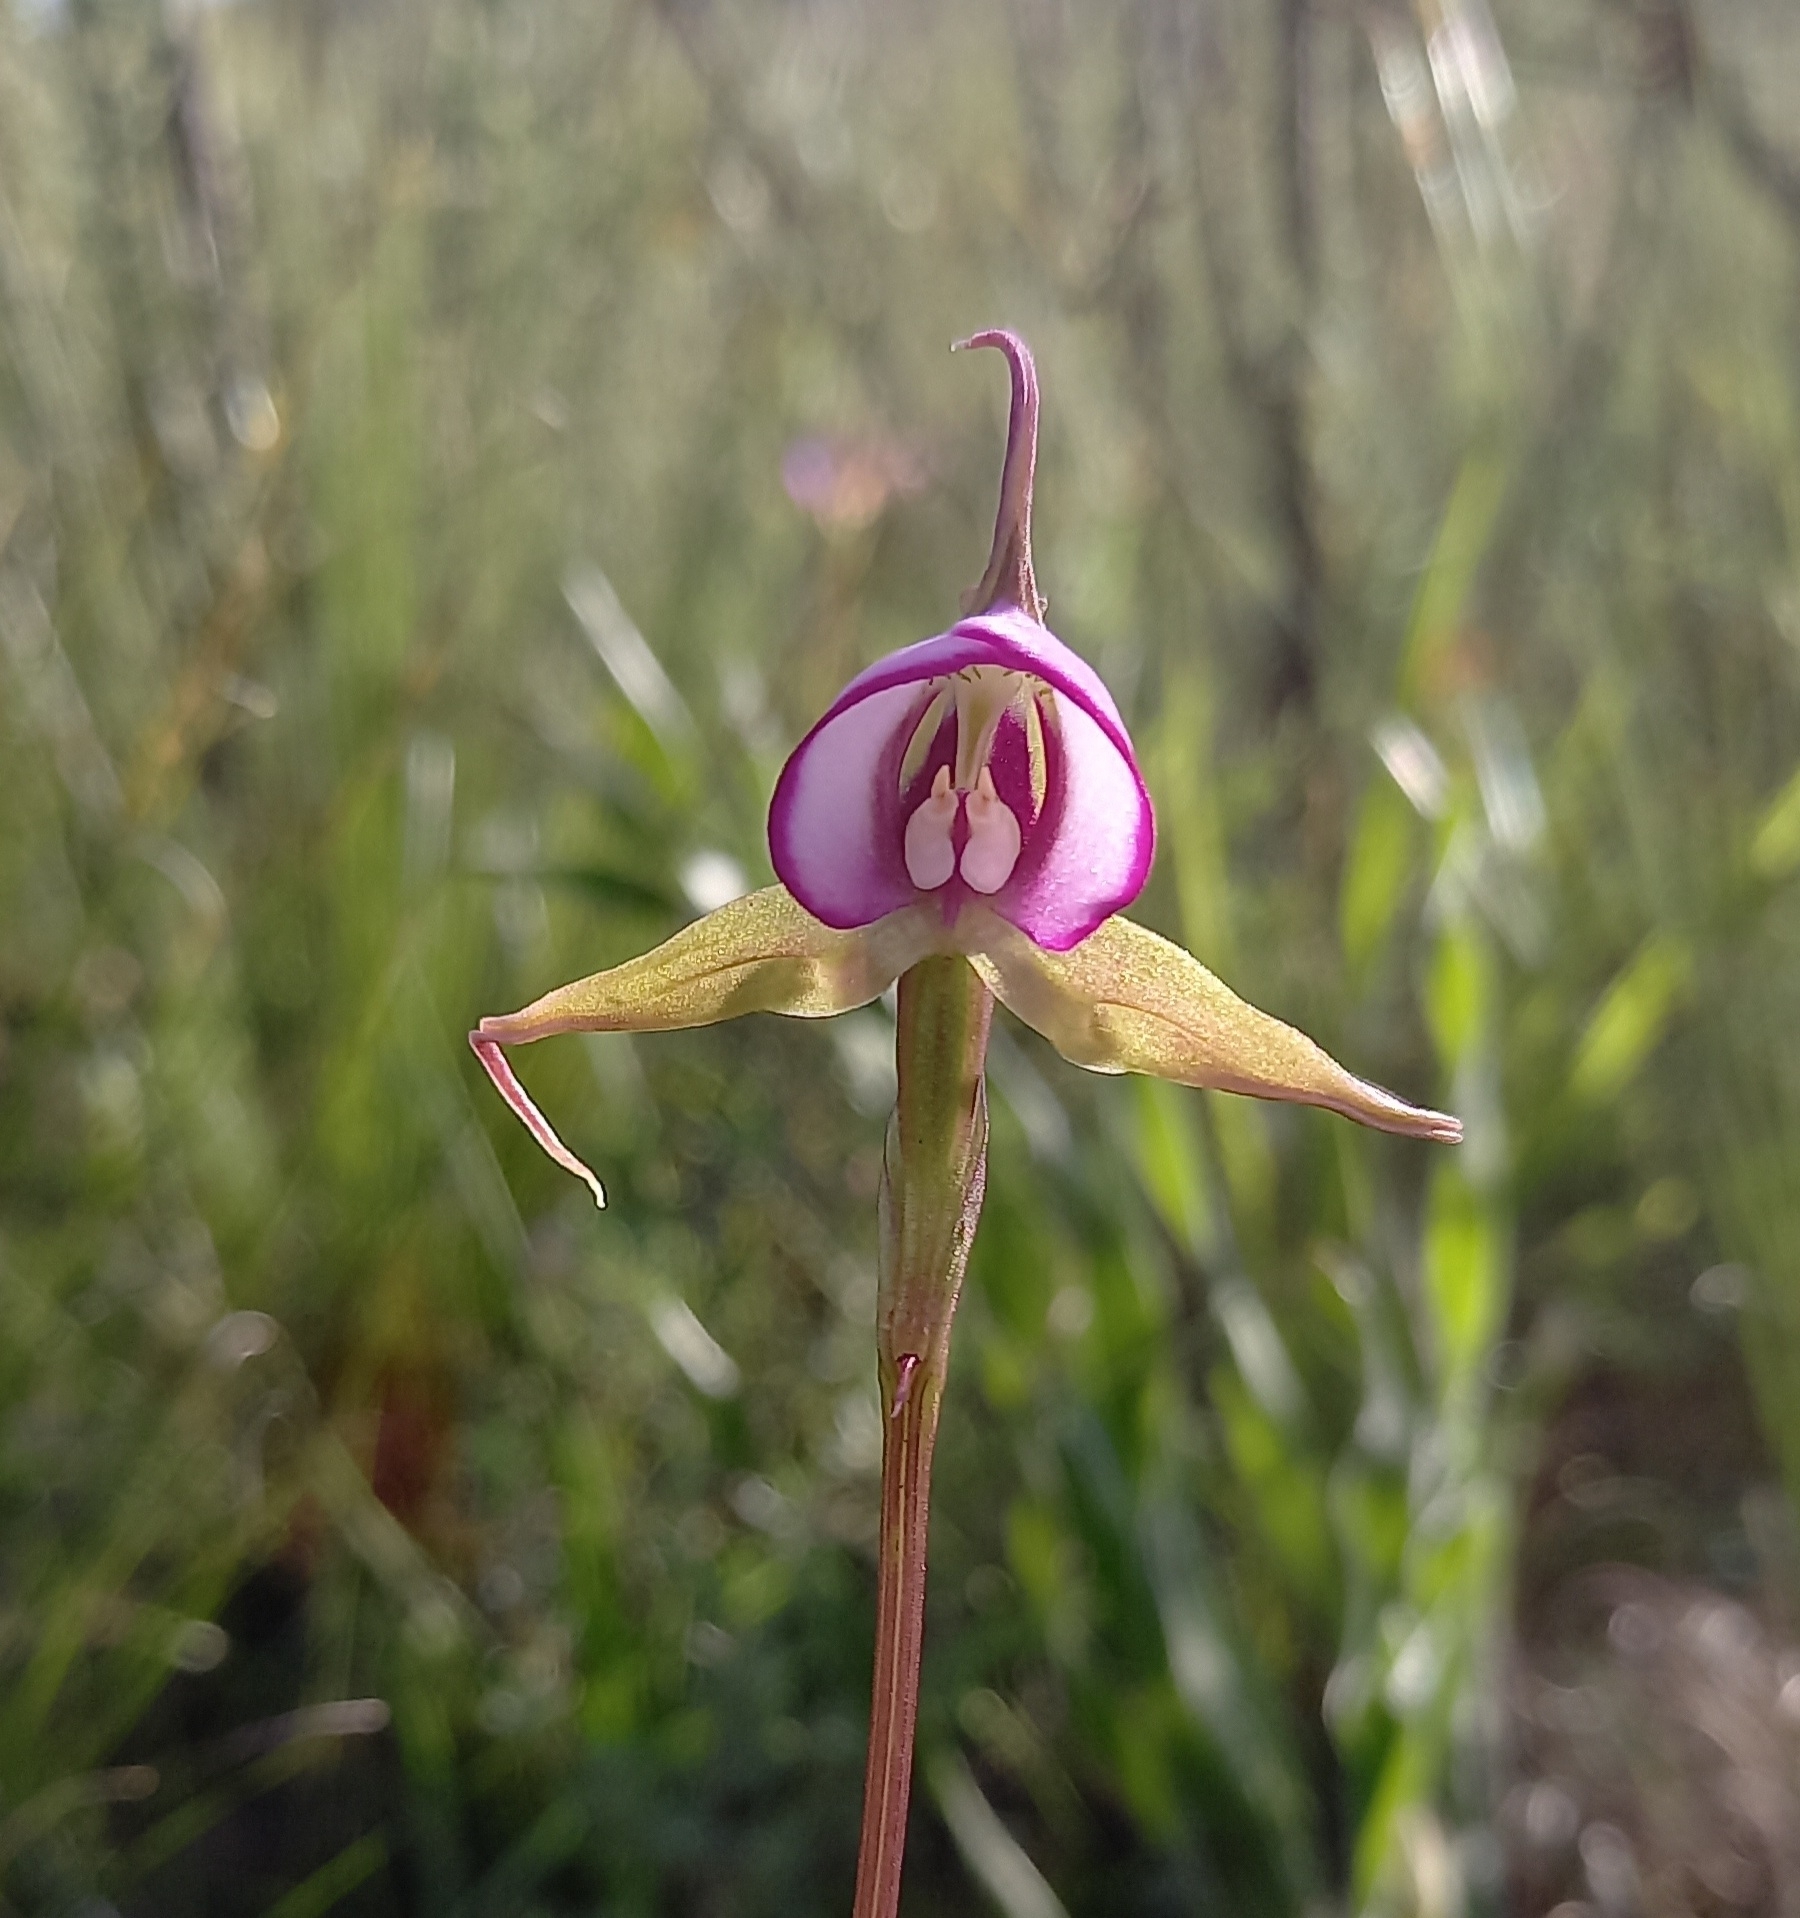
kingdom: Plantae
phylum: Tracheophyta
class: Liliopsida
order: Asparagales
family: Orchidaceae
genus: Disperis
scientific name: Disperis capensis
